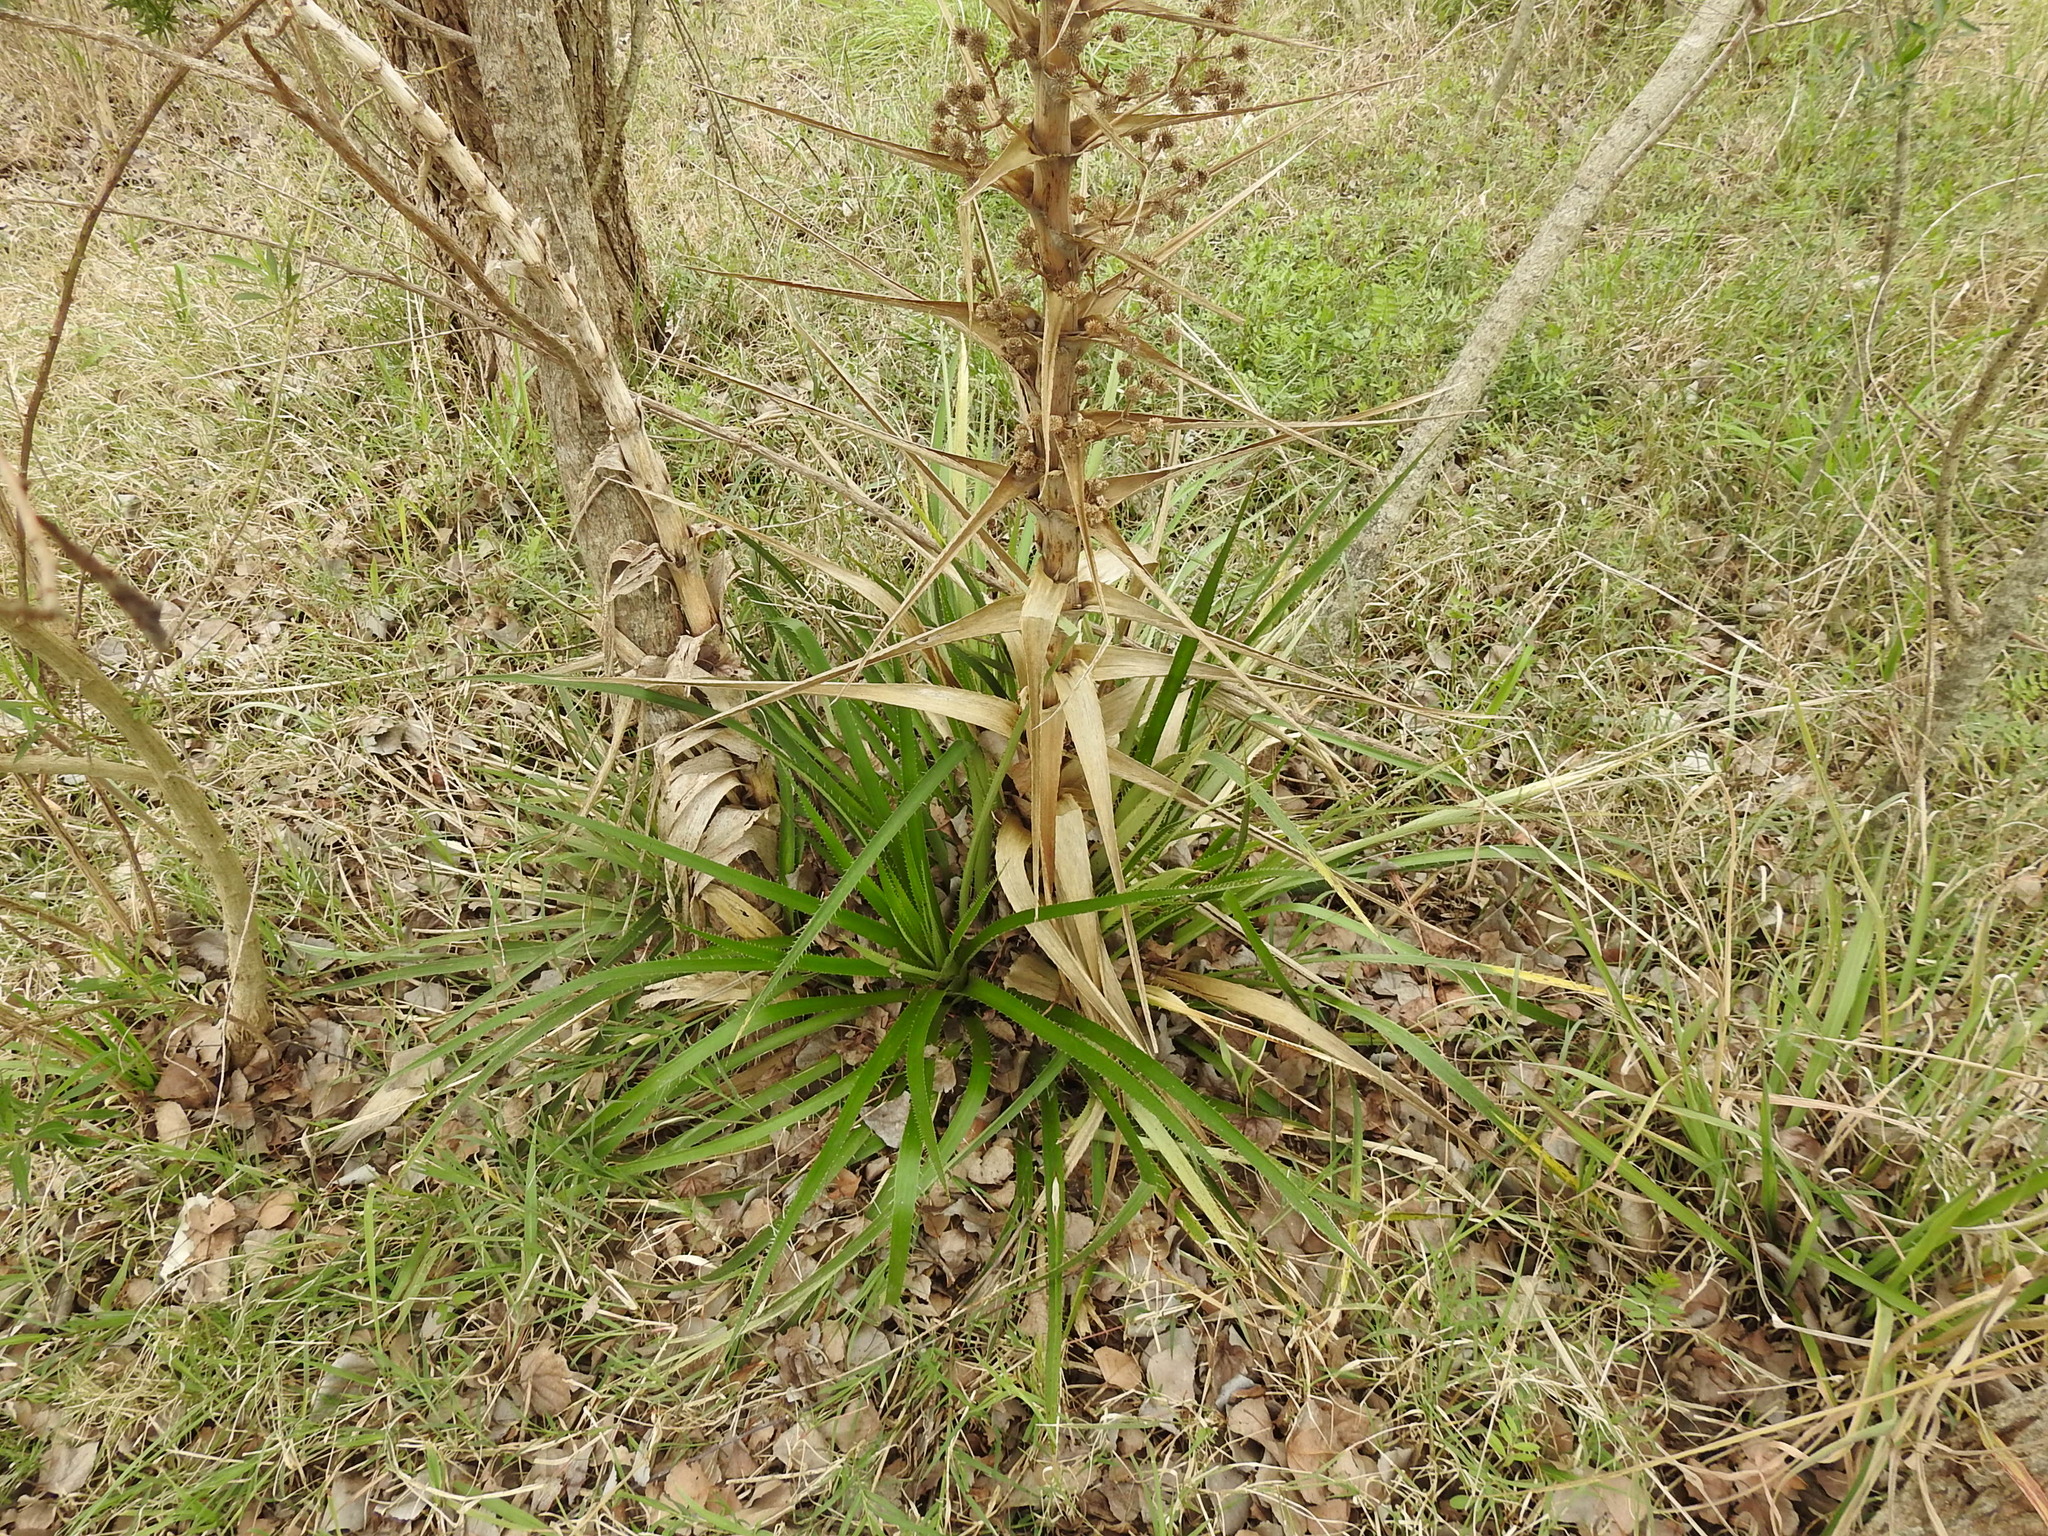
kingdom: Plantae
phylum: Tracheophyta
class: Magnoliopsida
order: Apiales
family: Apiaceae
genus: Eryngium
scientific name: Eryngium horridum
